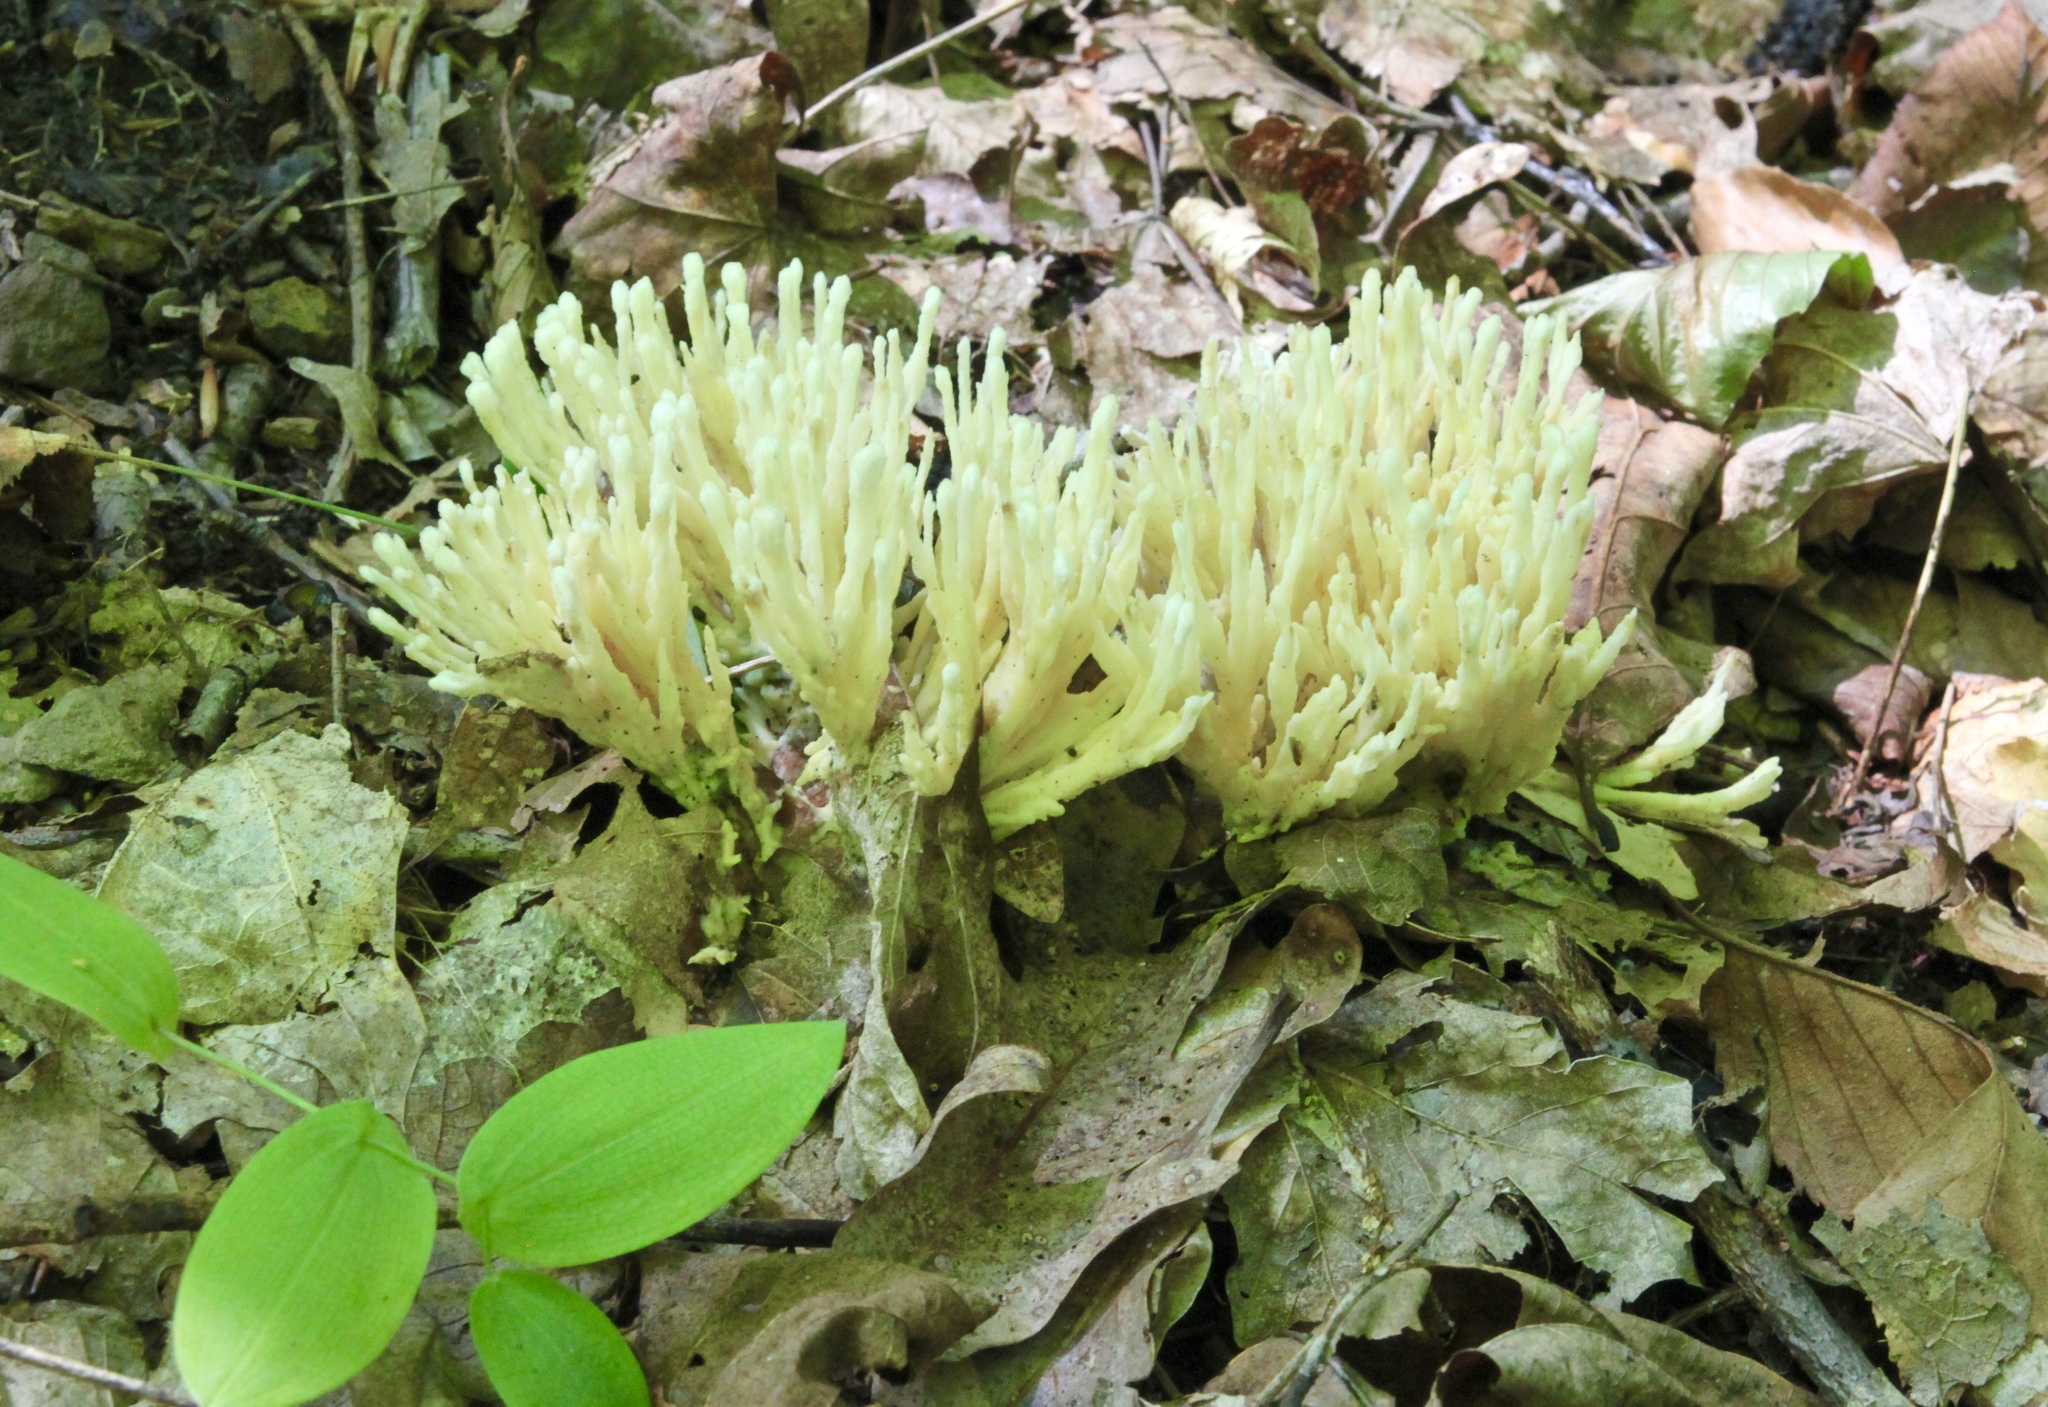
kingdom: Fungi
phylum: Basidiomycota
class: Agaricomycetes
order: Sebacinales
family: Sebacinaceae
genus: Sebacina
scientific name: Sebacina schweinitzii
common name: Jellied false coral fungus
